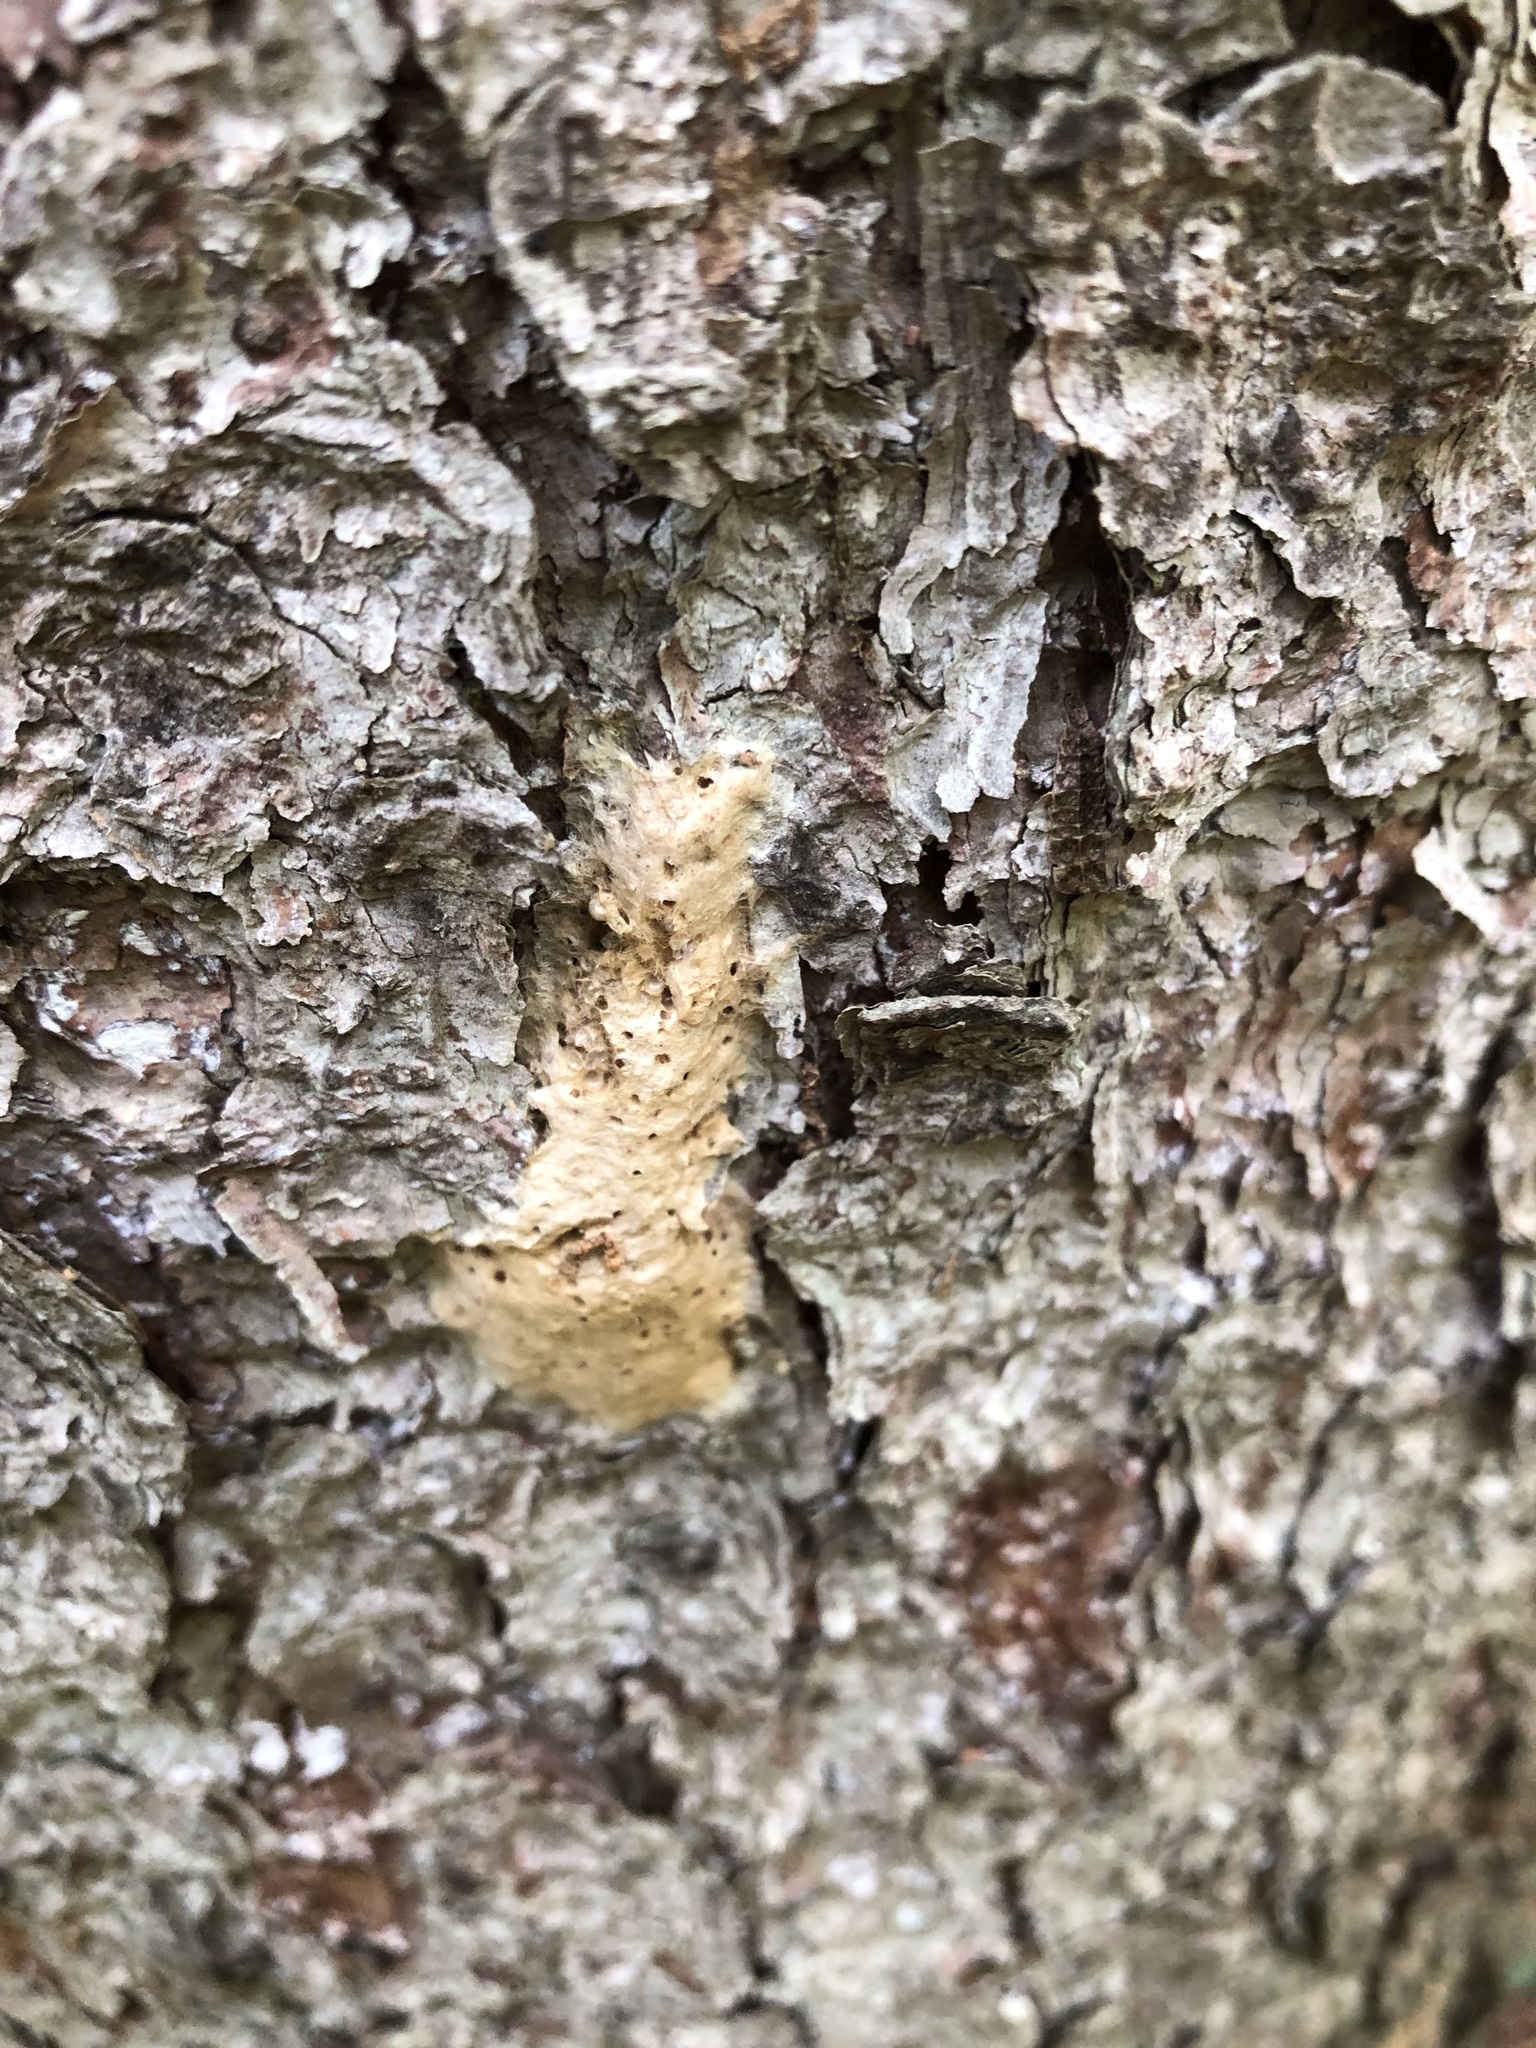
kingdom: Animalia
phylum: Arthropoda
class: Insecta
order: Lepidoptera
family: Erebidae
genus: Lymantria
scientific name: Lymantria dispar
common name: Gypsy moth
